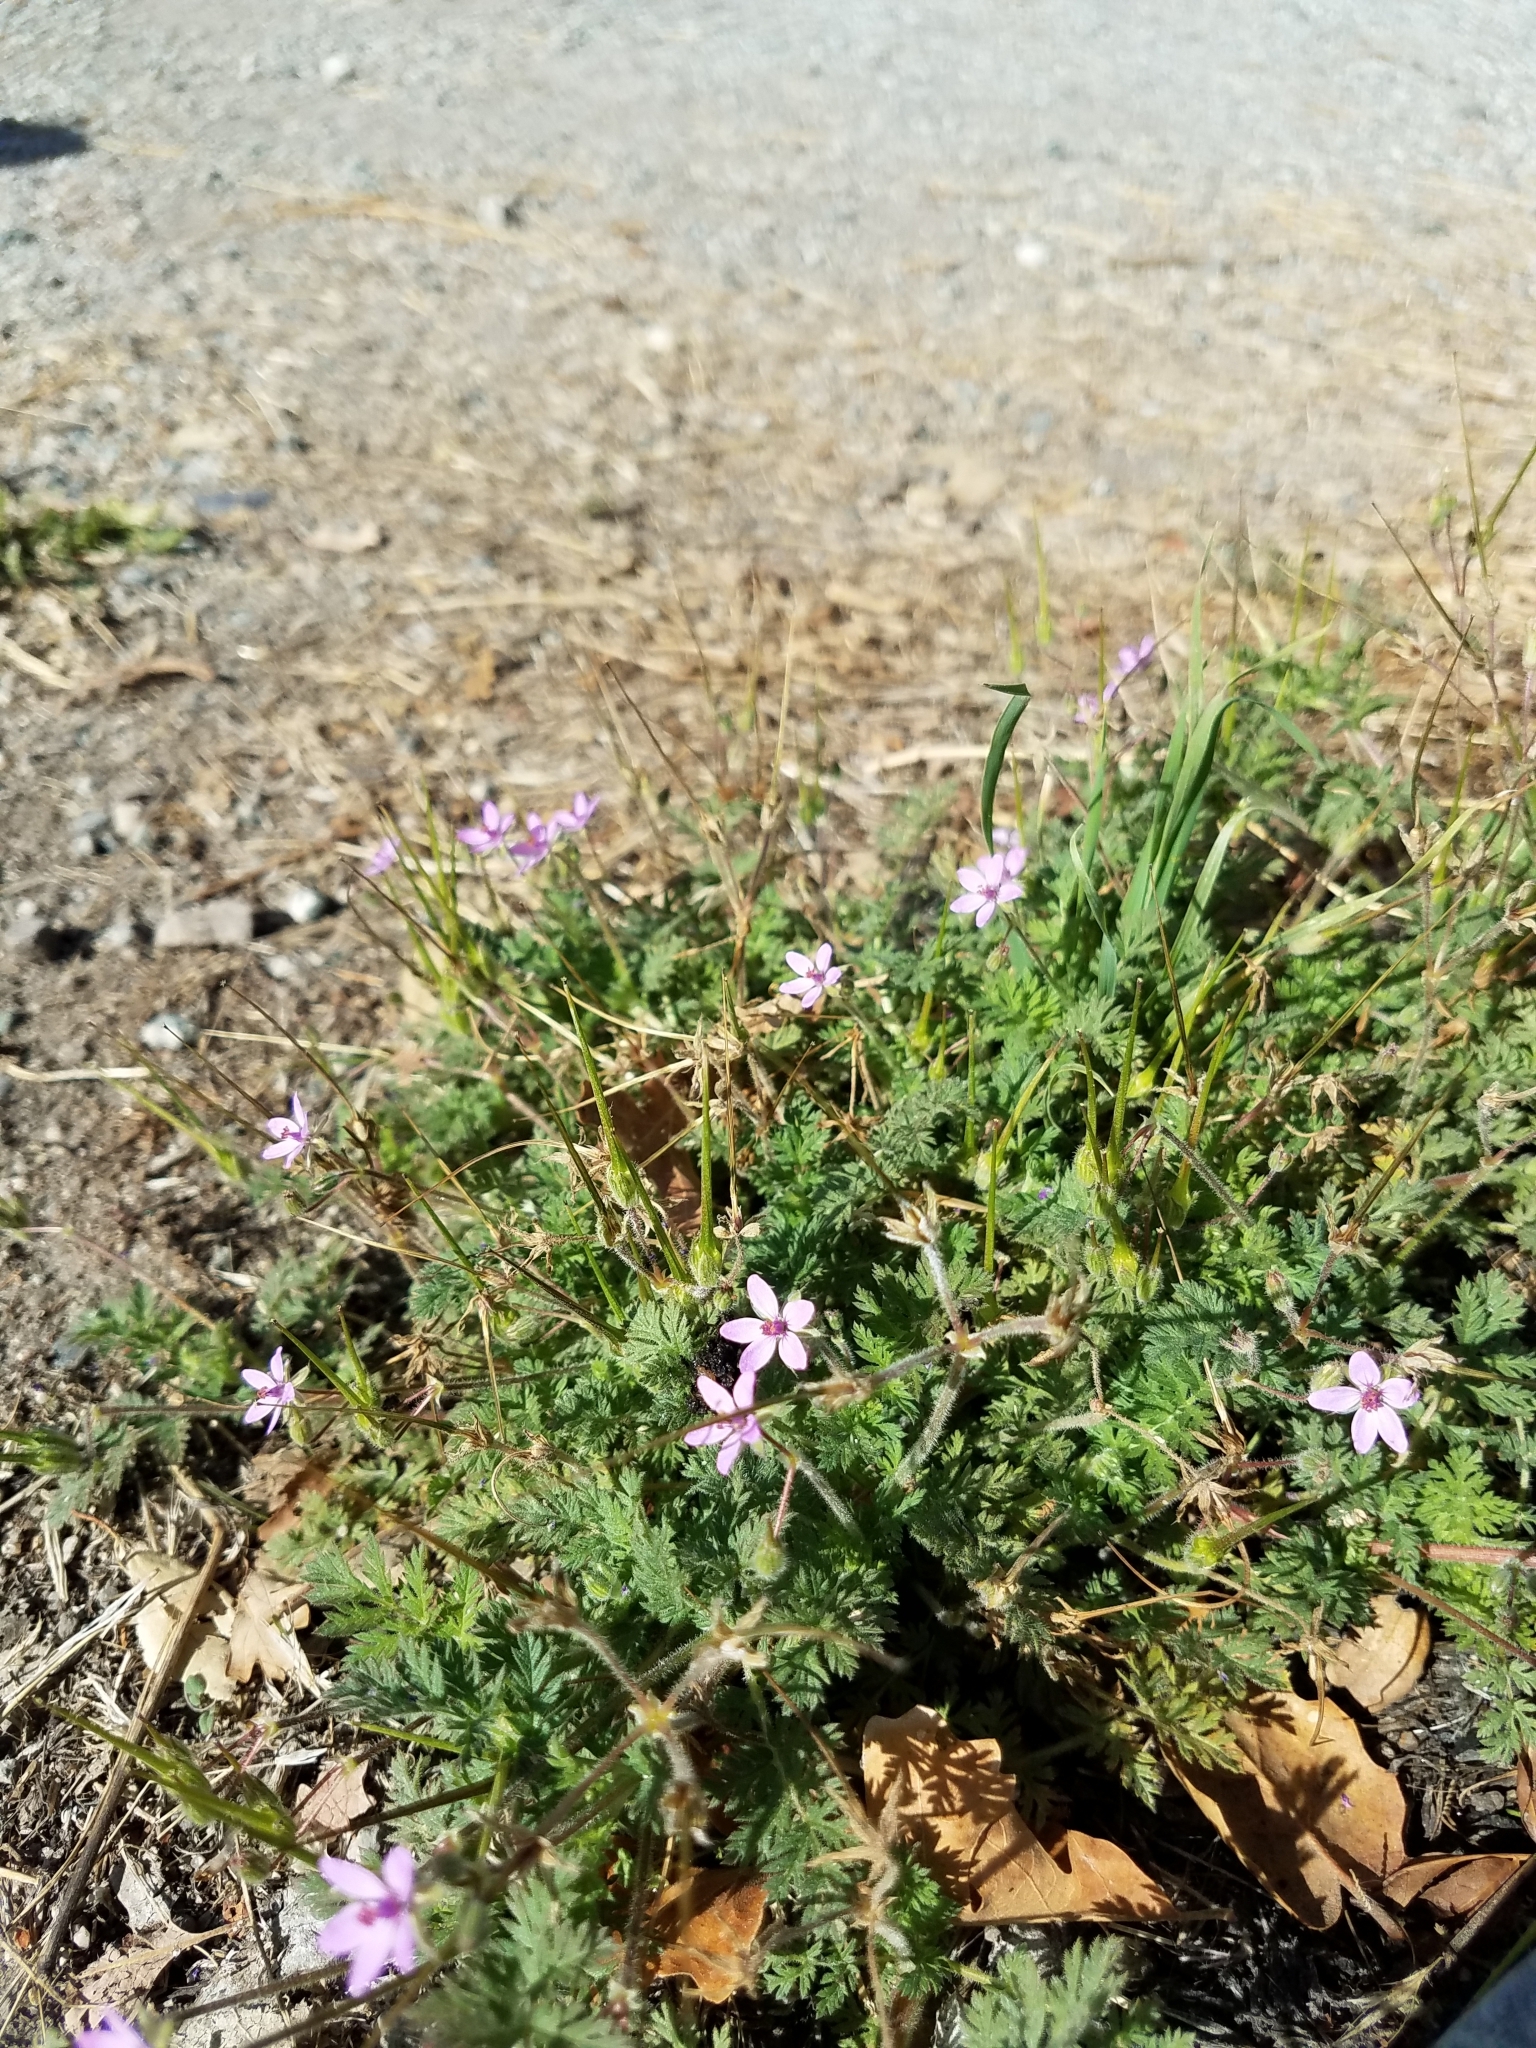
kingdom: Plantae
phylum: Tracheophyta
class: Magnoliopsida
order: Geraniales
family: Geraniaceae
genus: Erodium
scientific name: Erodium cicutarium
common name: Common stork's-bill
